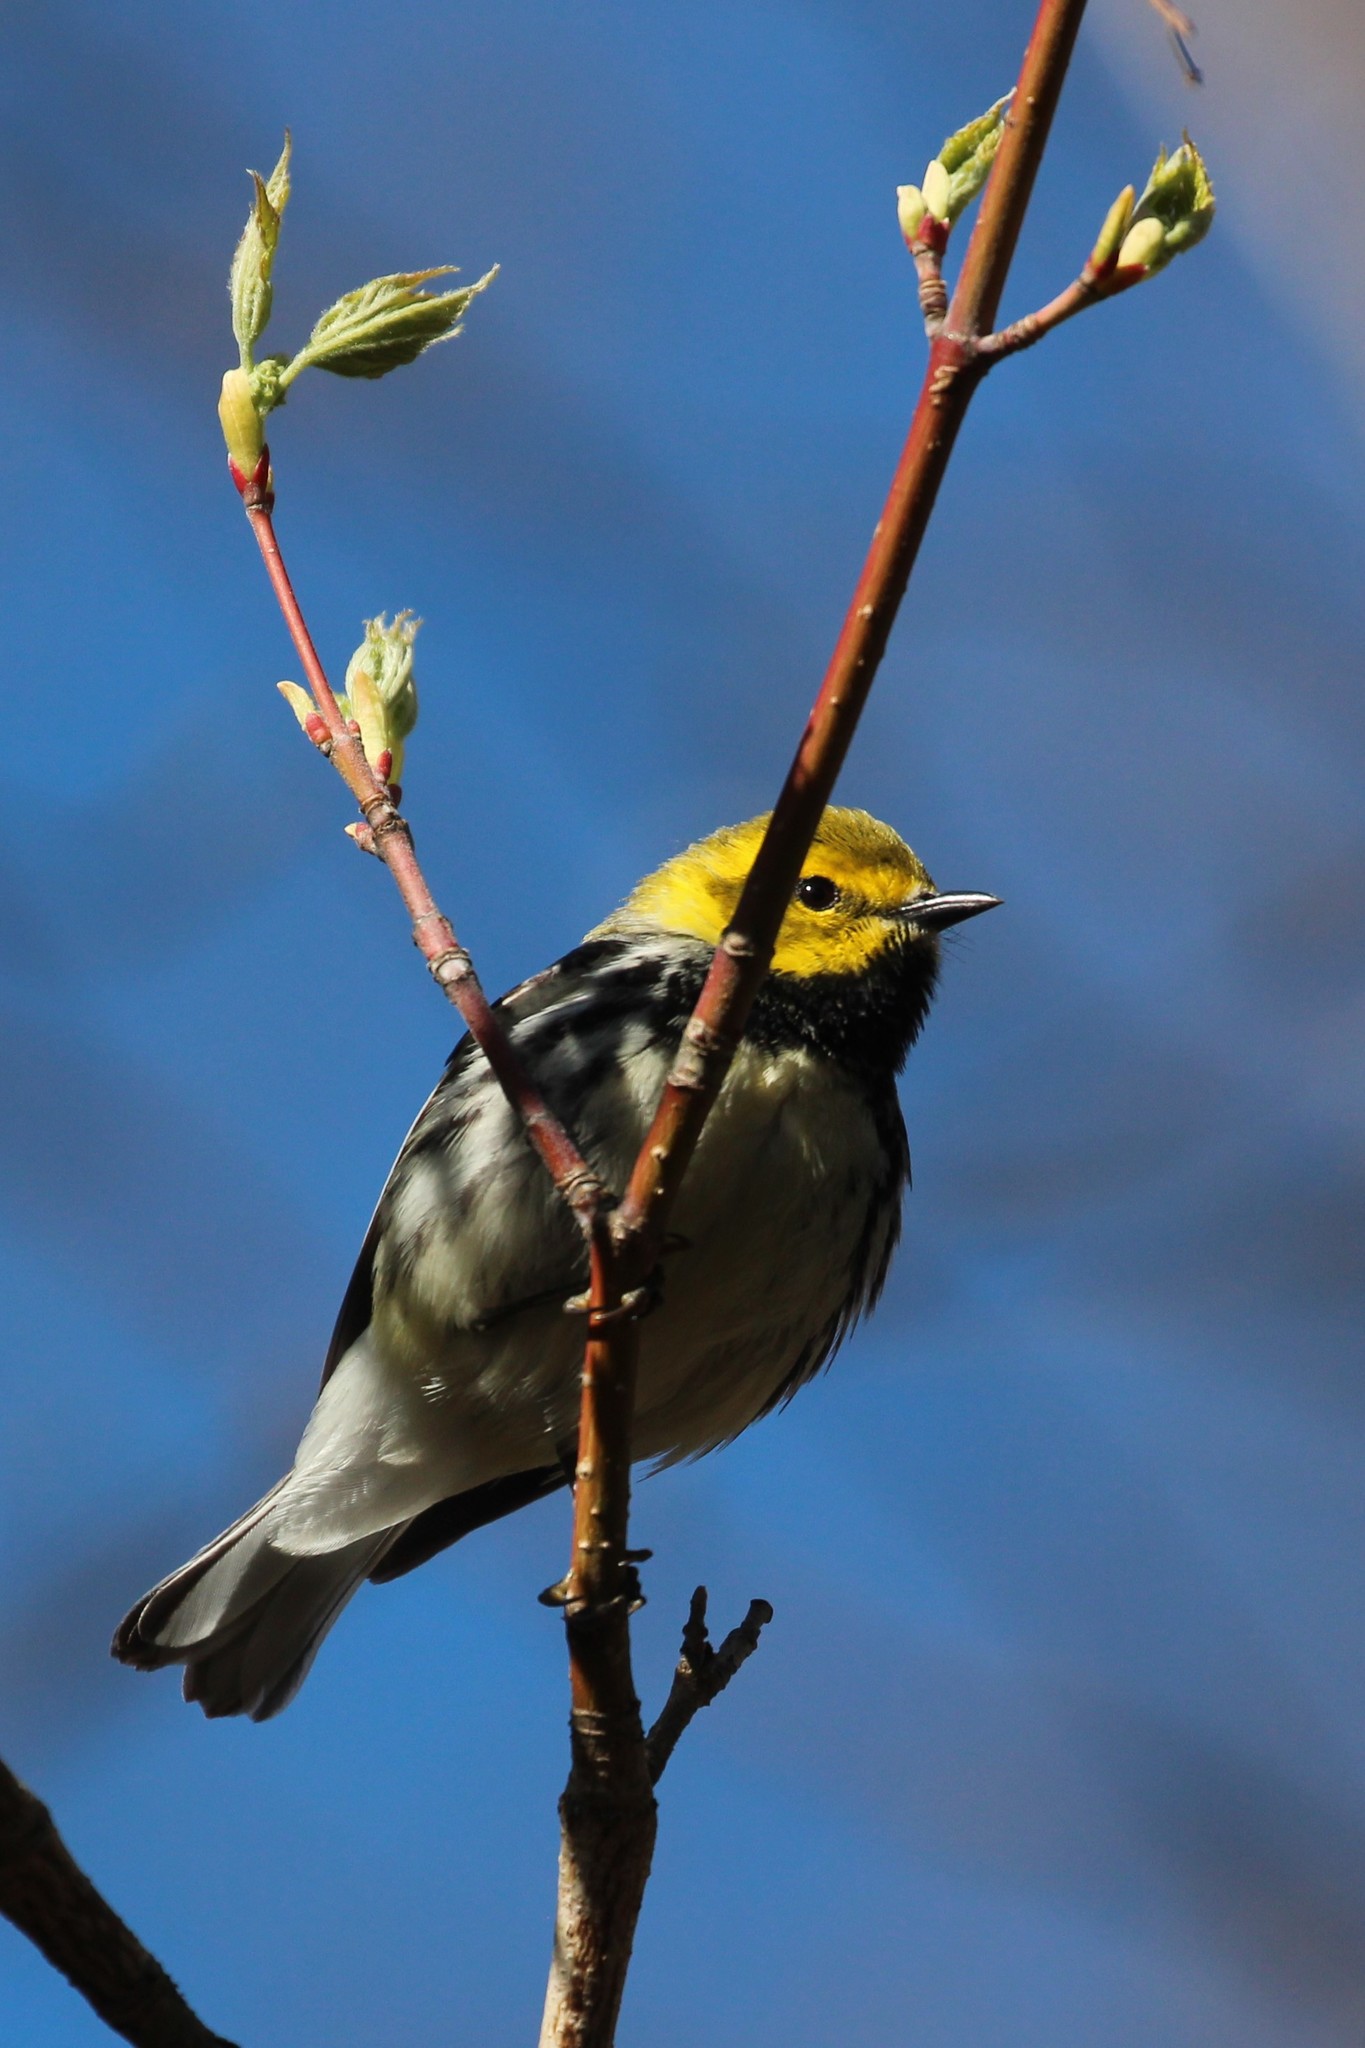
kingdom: Animalia
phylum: Chordata
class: Aves
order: Passeriformes
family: Parulidae
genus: Setophaga
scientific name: Setophaga virens
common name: Black-throated green warbler
